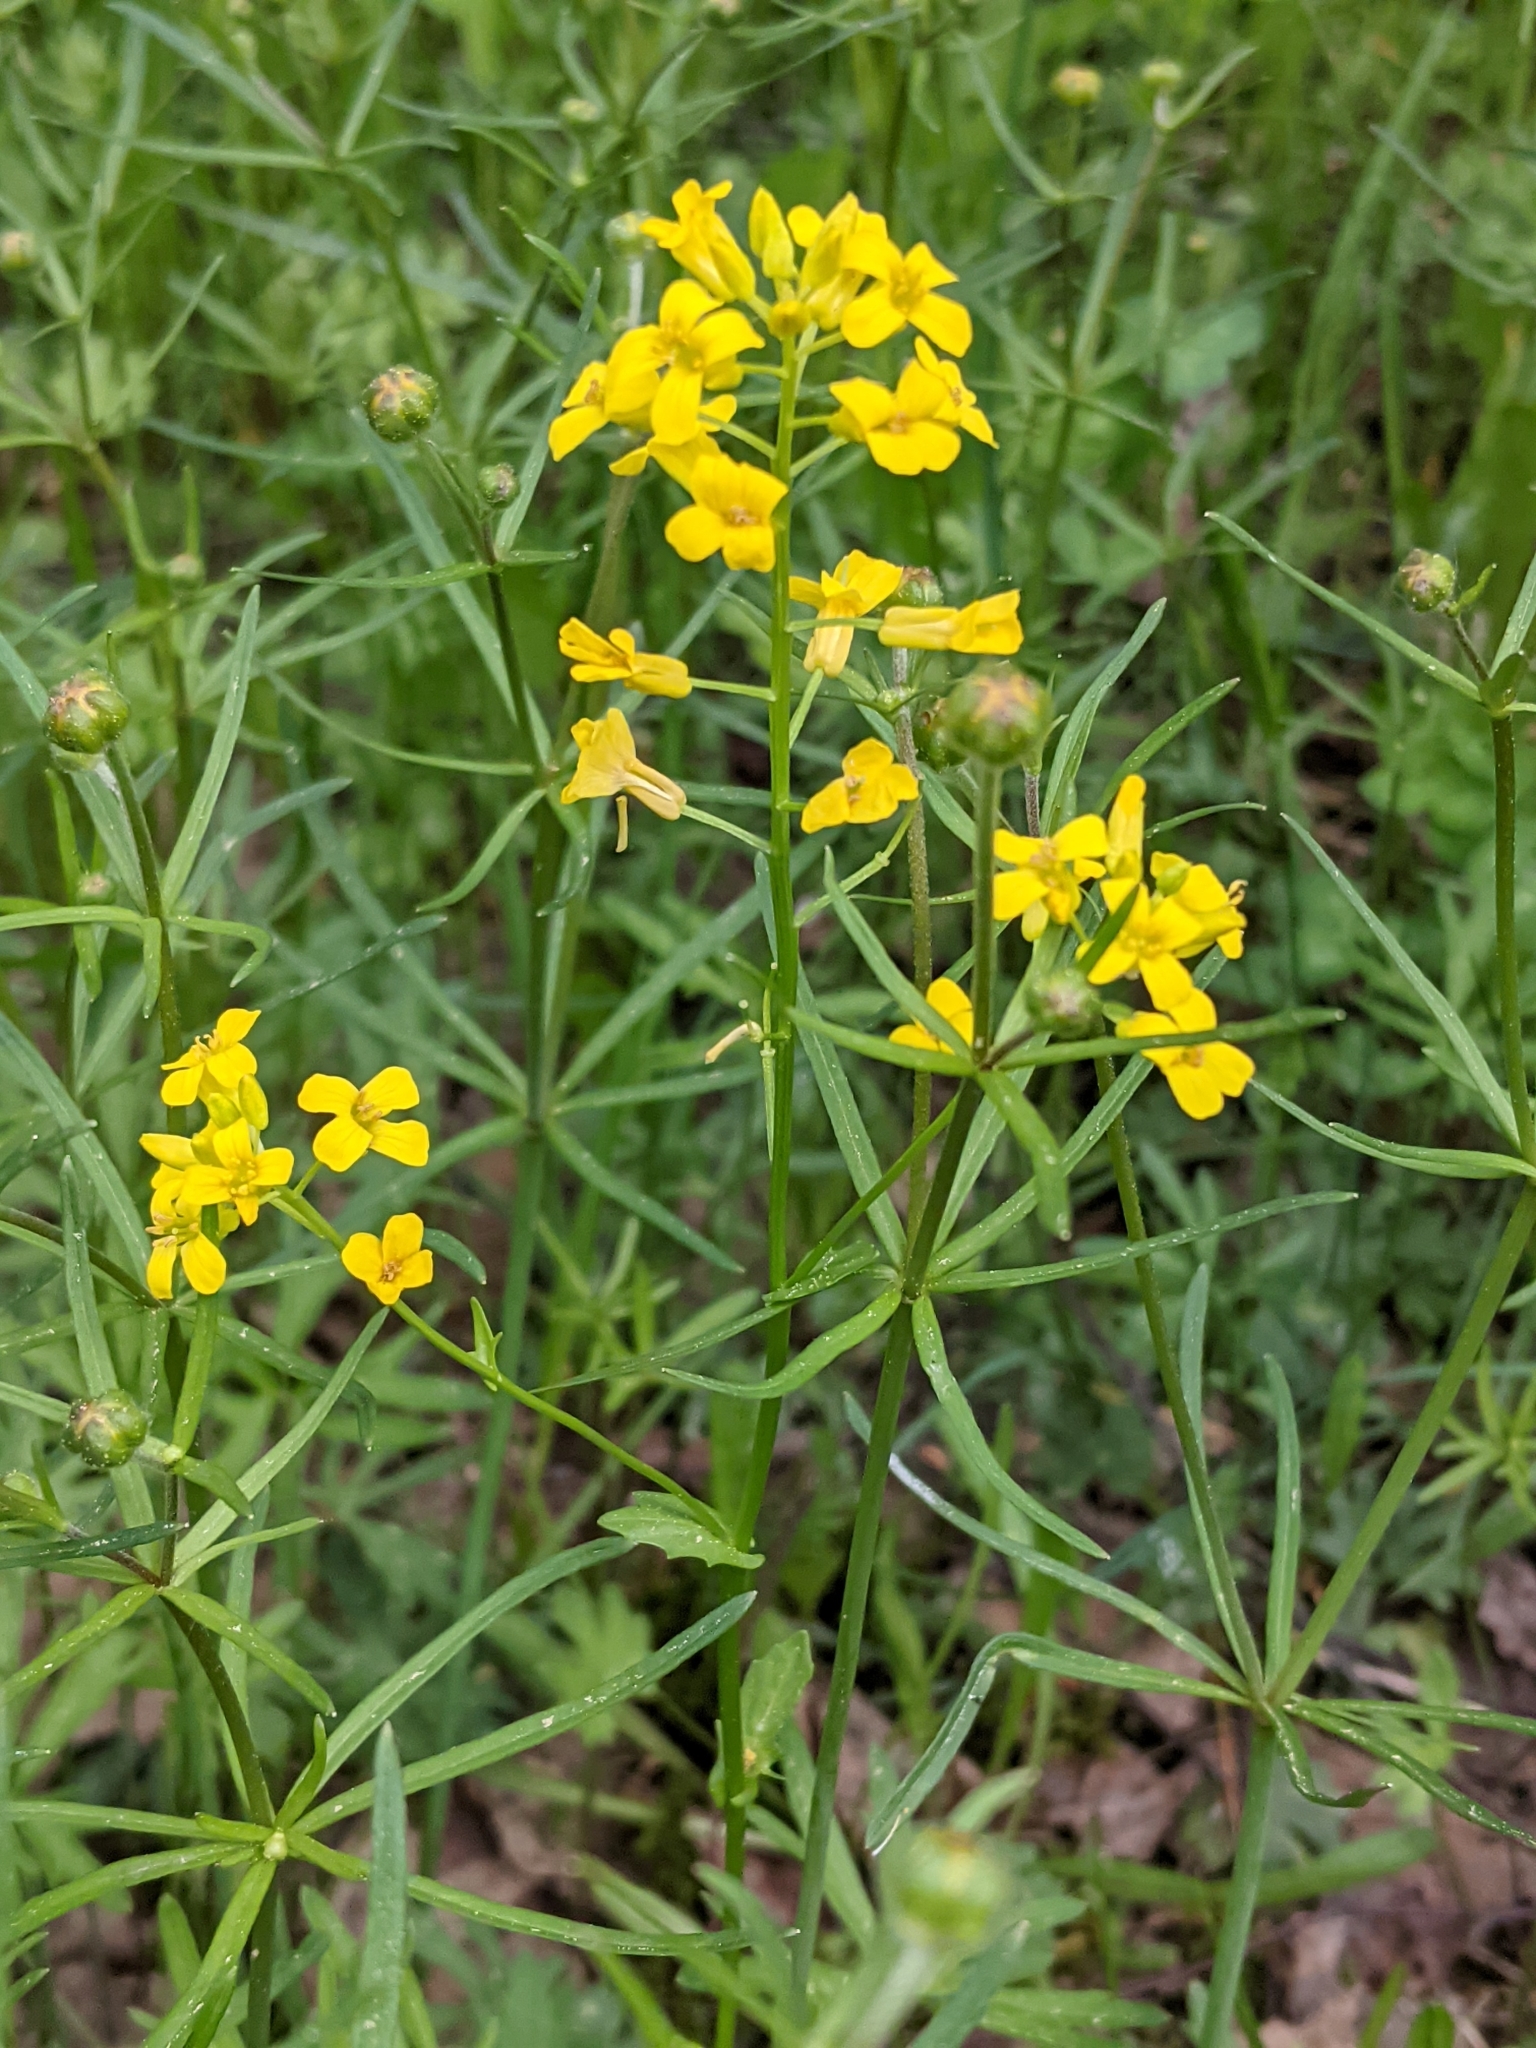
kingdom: Plantae
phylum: Tracheophyta
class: Magnoliopsida
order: Brassicales
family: Brassicaceae
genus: Barbarea
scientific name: Barbarea vulgaris
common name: Cressy-greens
